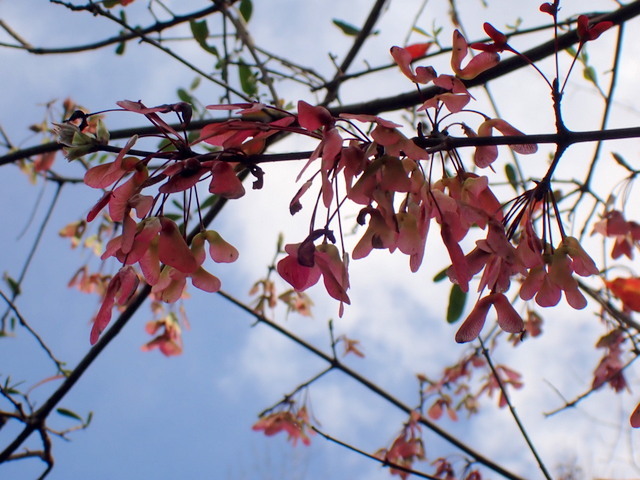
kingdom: Plantae
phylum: Tracheophyta
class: Magnoliopsida
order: Sapindales
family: Sapindaceae
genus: Acer
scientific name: Acer rubrum
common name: Red maple
